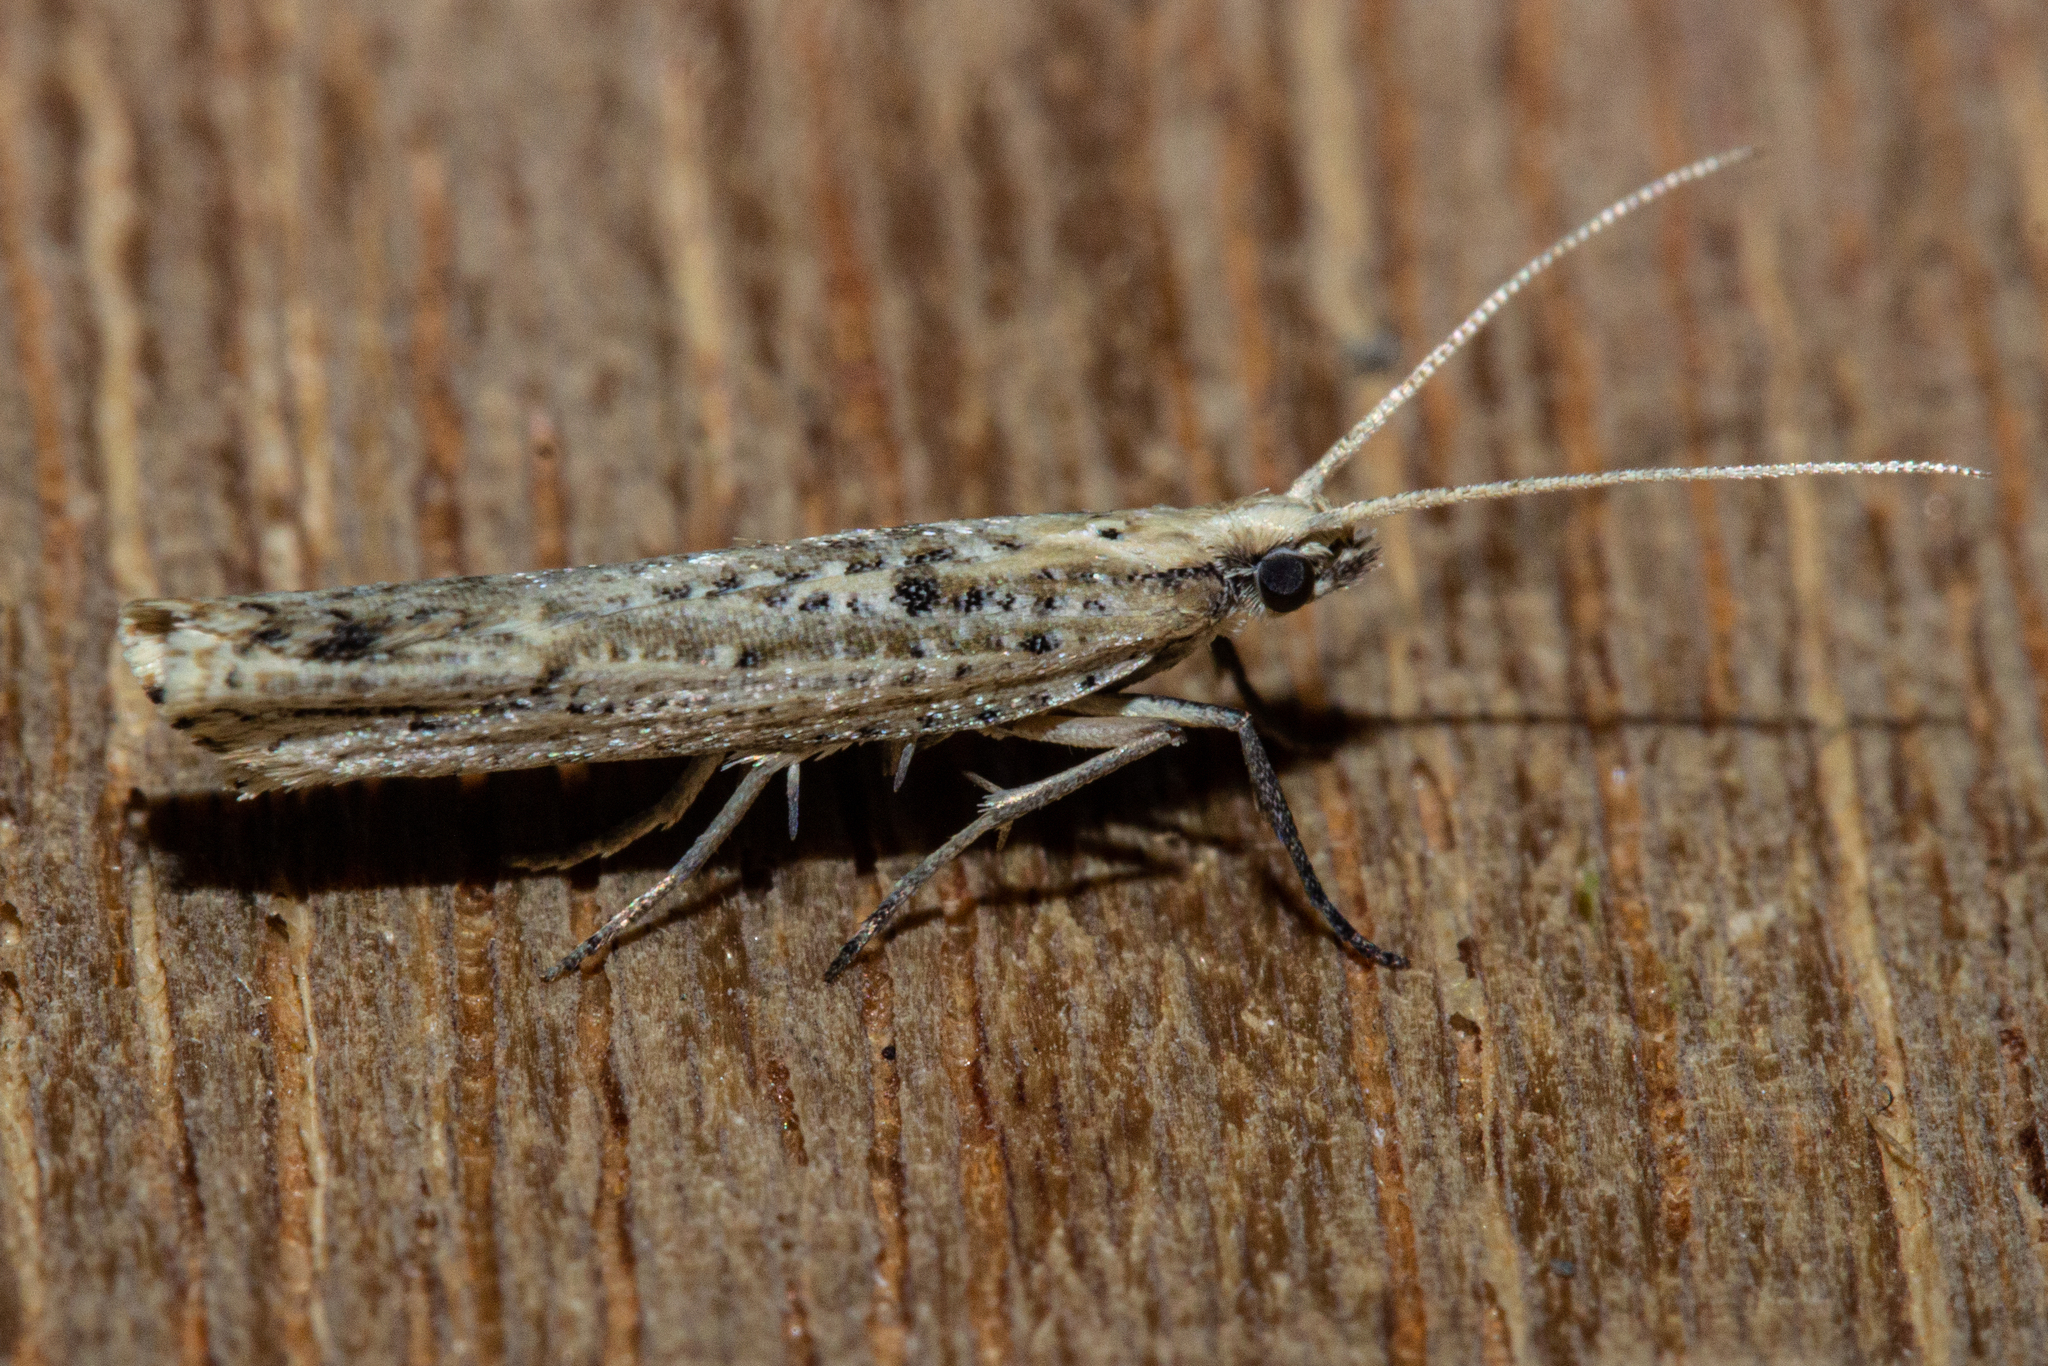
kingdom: Animalia
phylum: Arthropoda
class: Insecta
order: Lepidoptera
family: Glyphipterigidae
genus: Orthenches
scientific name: Orthenches chlorocoma
